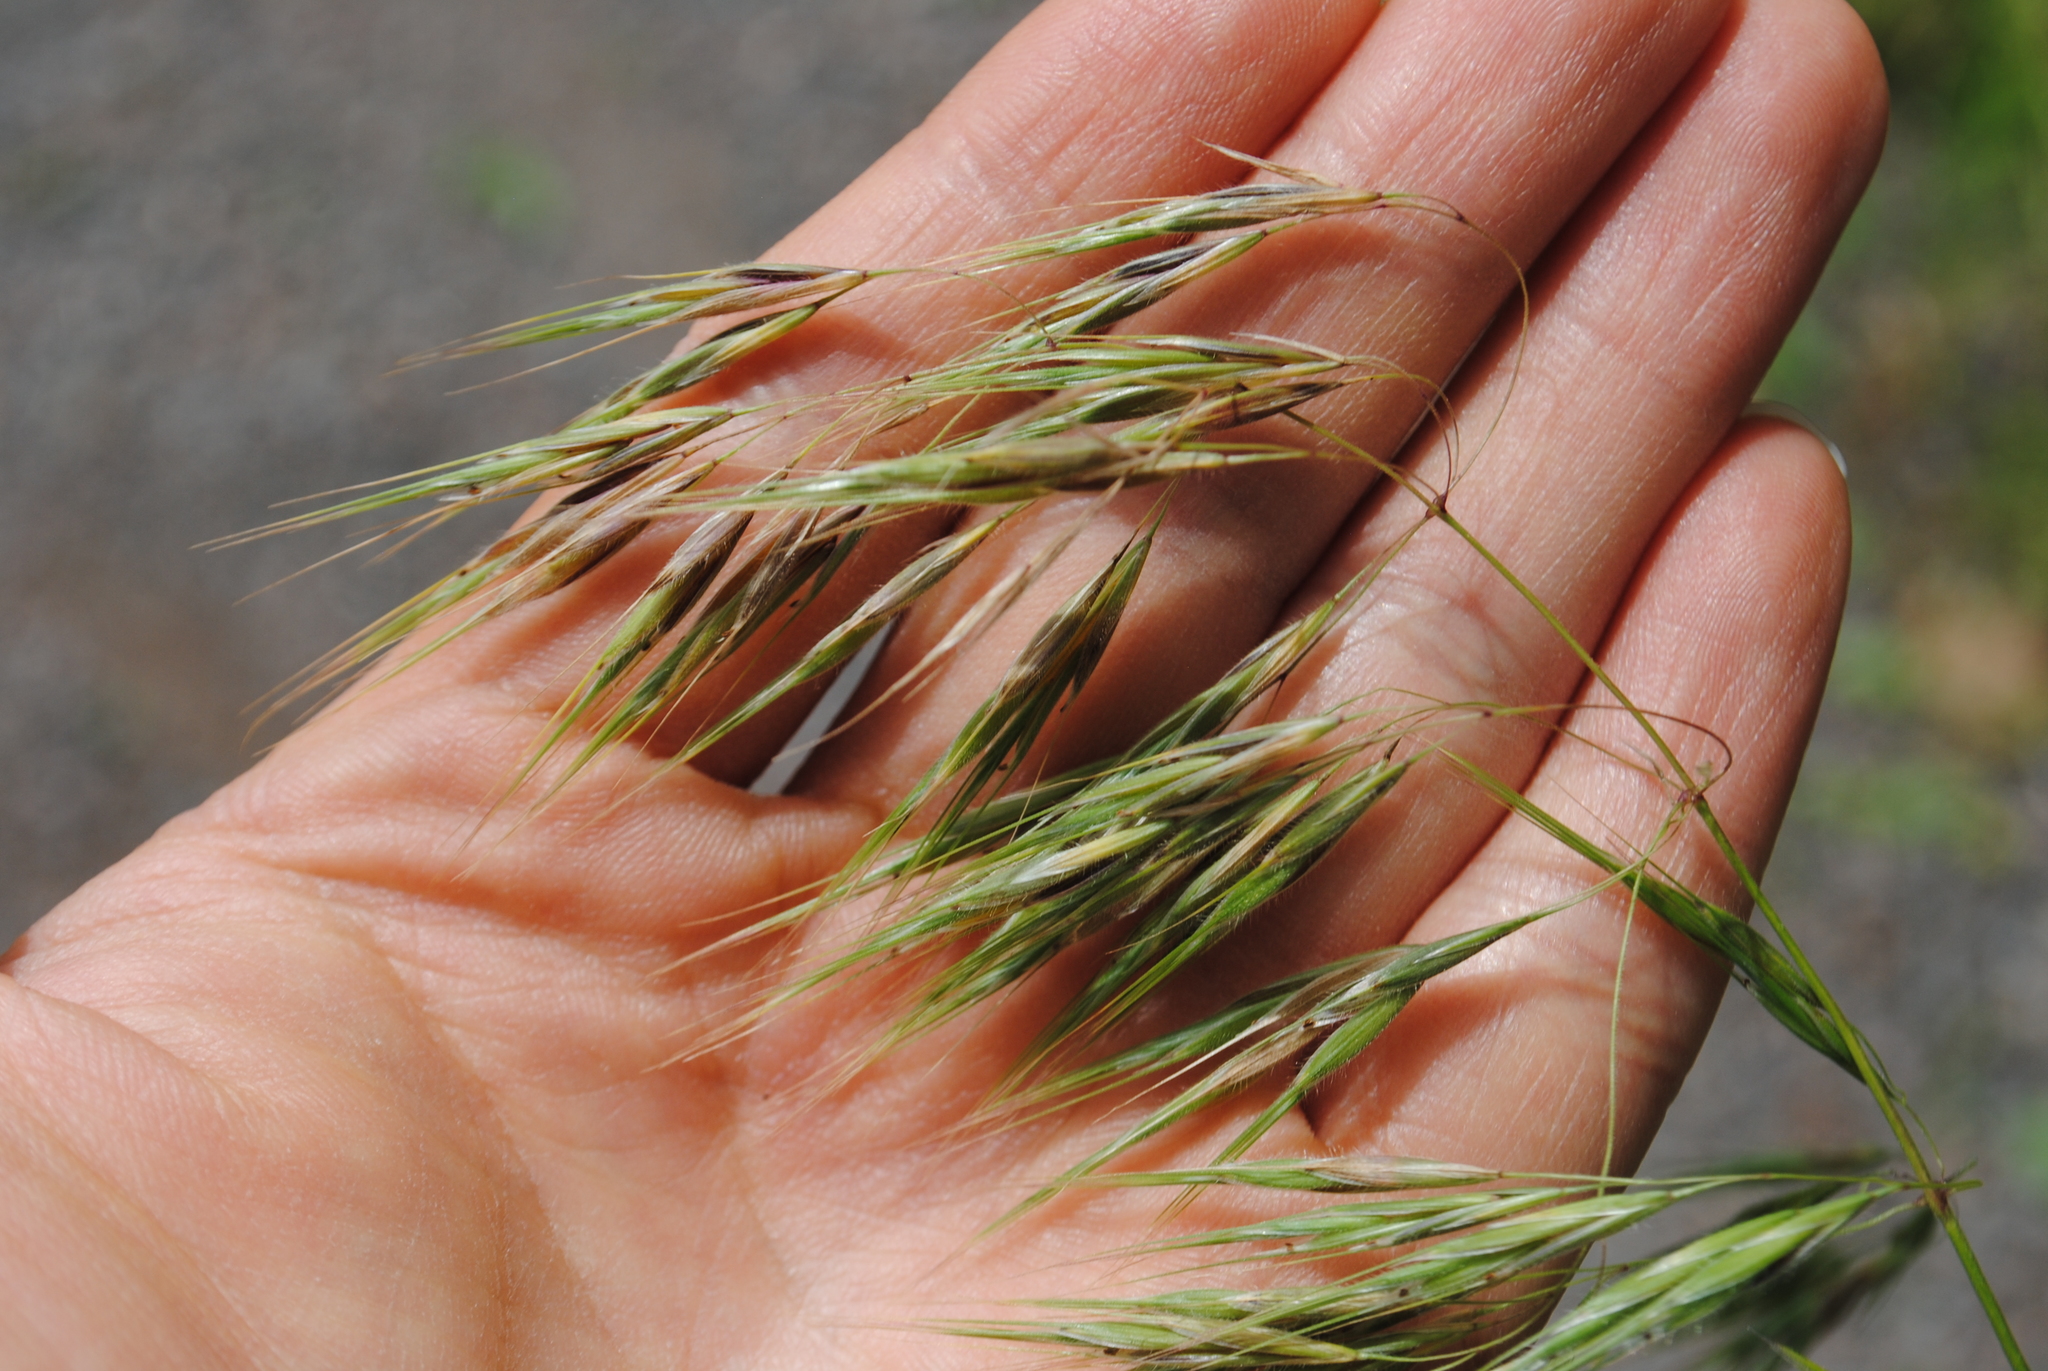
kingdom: Plantae
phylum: Tracheophyta
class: Liliopsida
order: Poales
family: Poaceae
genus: Bromus
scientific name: Bromus tectorum
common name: Cheatgrass
